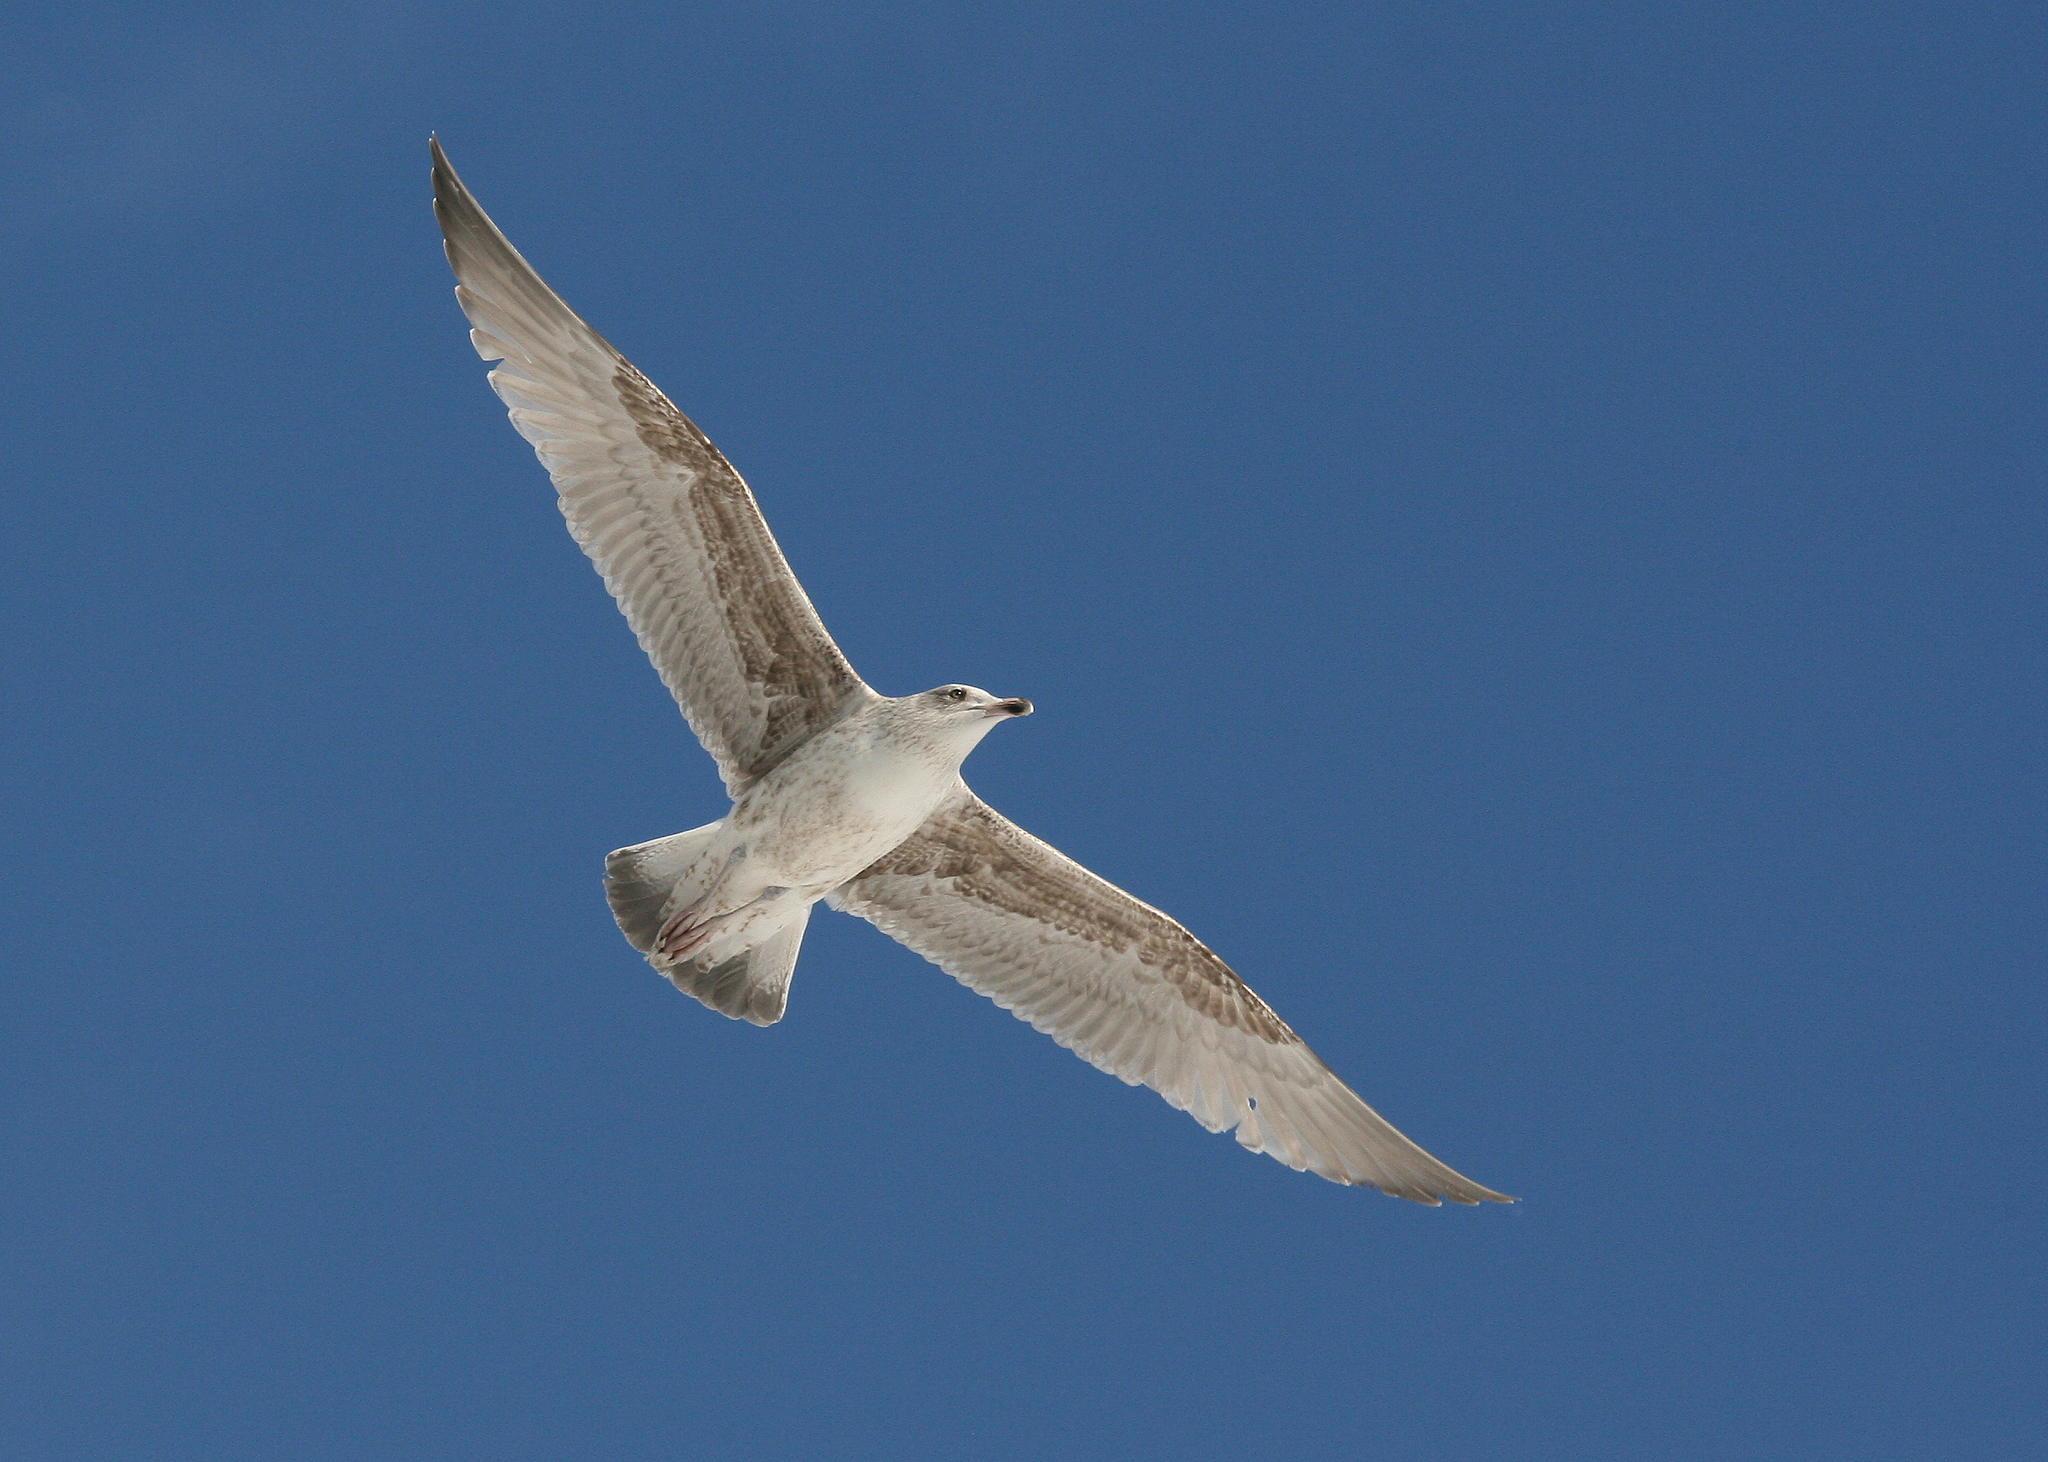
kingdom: Animalia
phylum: Chordata
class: Aves
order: Charadriiformes
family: Laridae
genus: Larus
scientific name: Larus argentatus
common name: Herring gull
